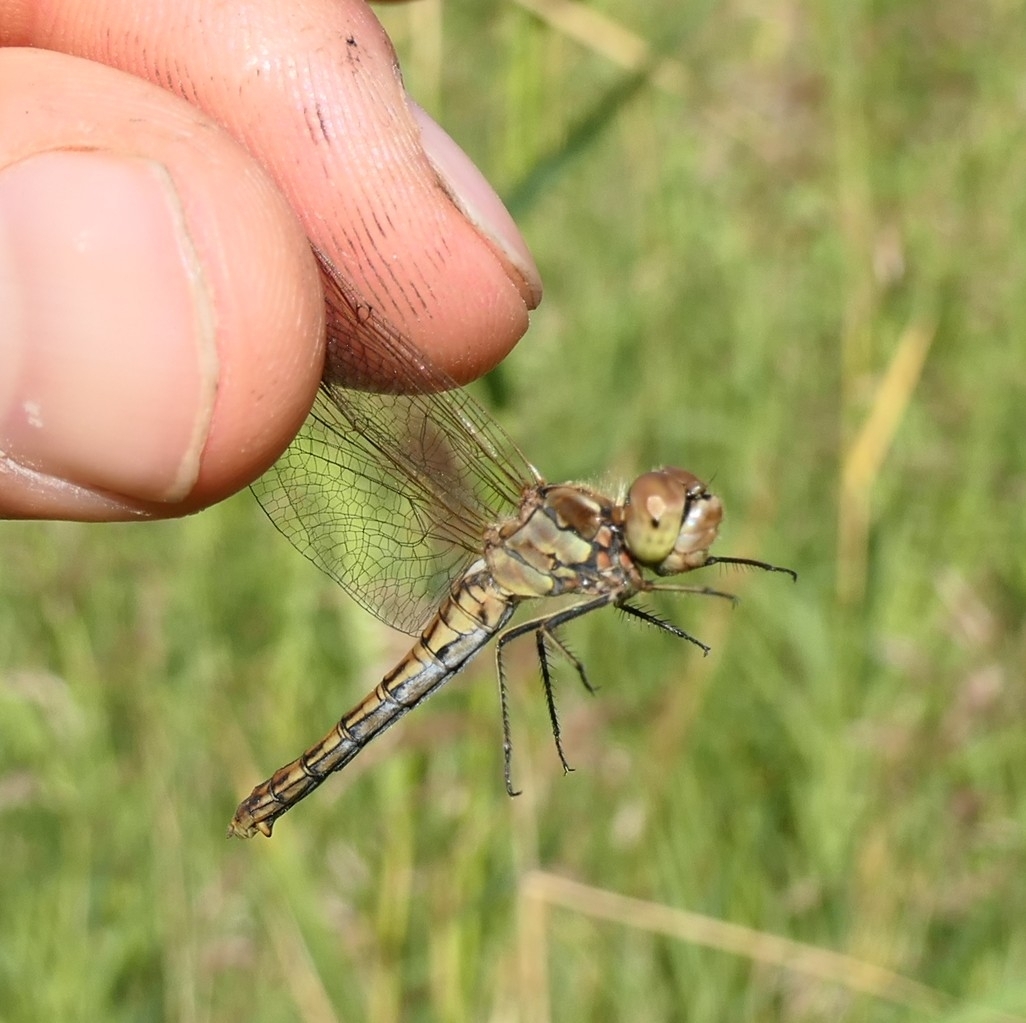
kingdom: Animalia
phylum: Arthropoda
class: Insecta
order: Odonata
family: Libellulidae
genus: Sympetrum
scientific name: Sympetrum vulgatum
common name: Vagrant darter
